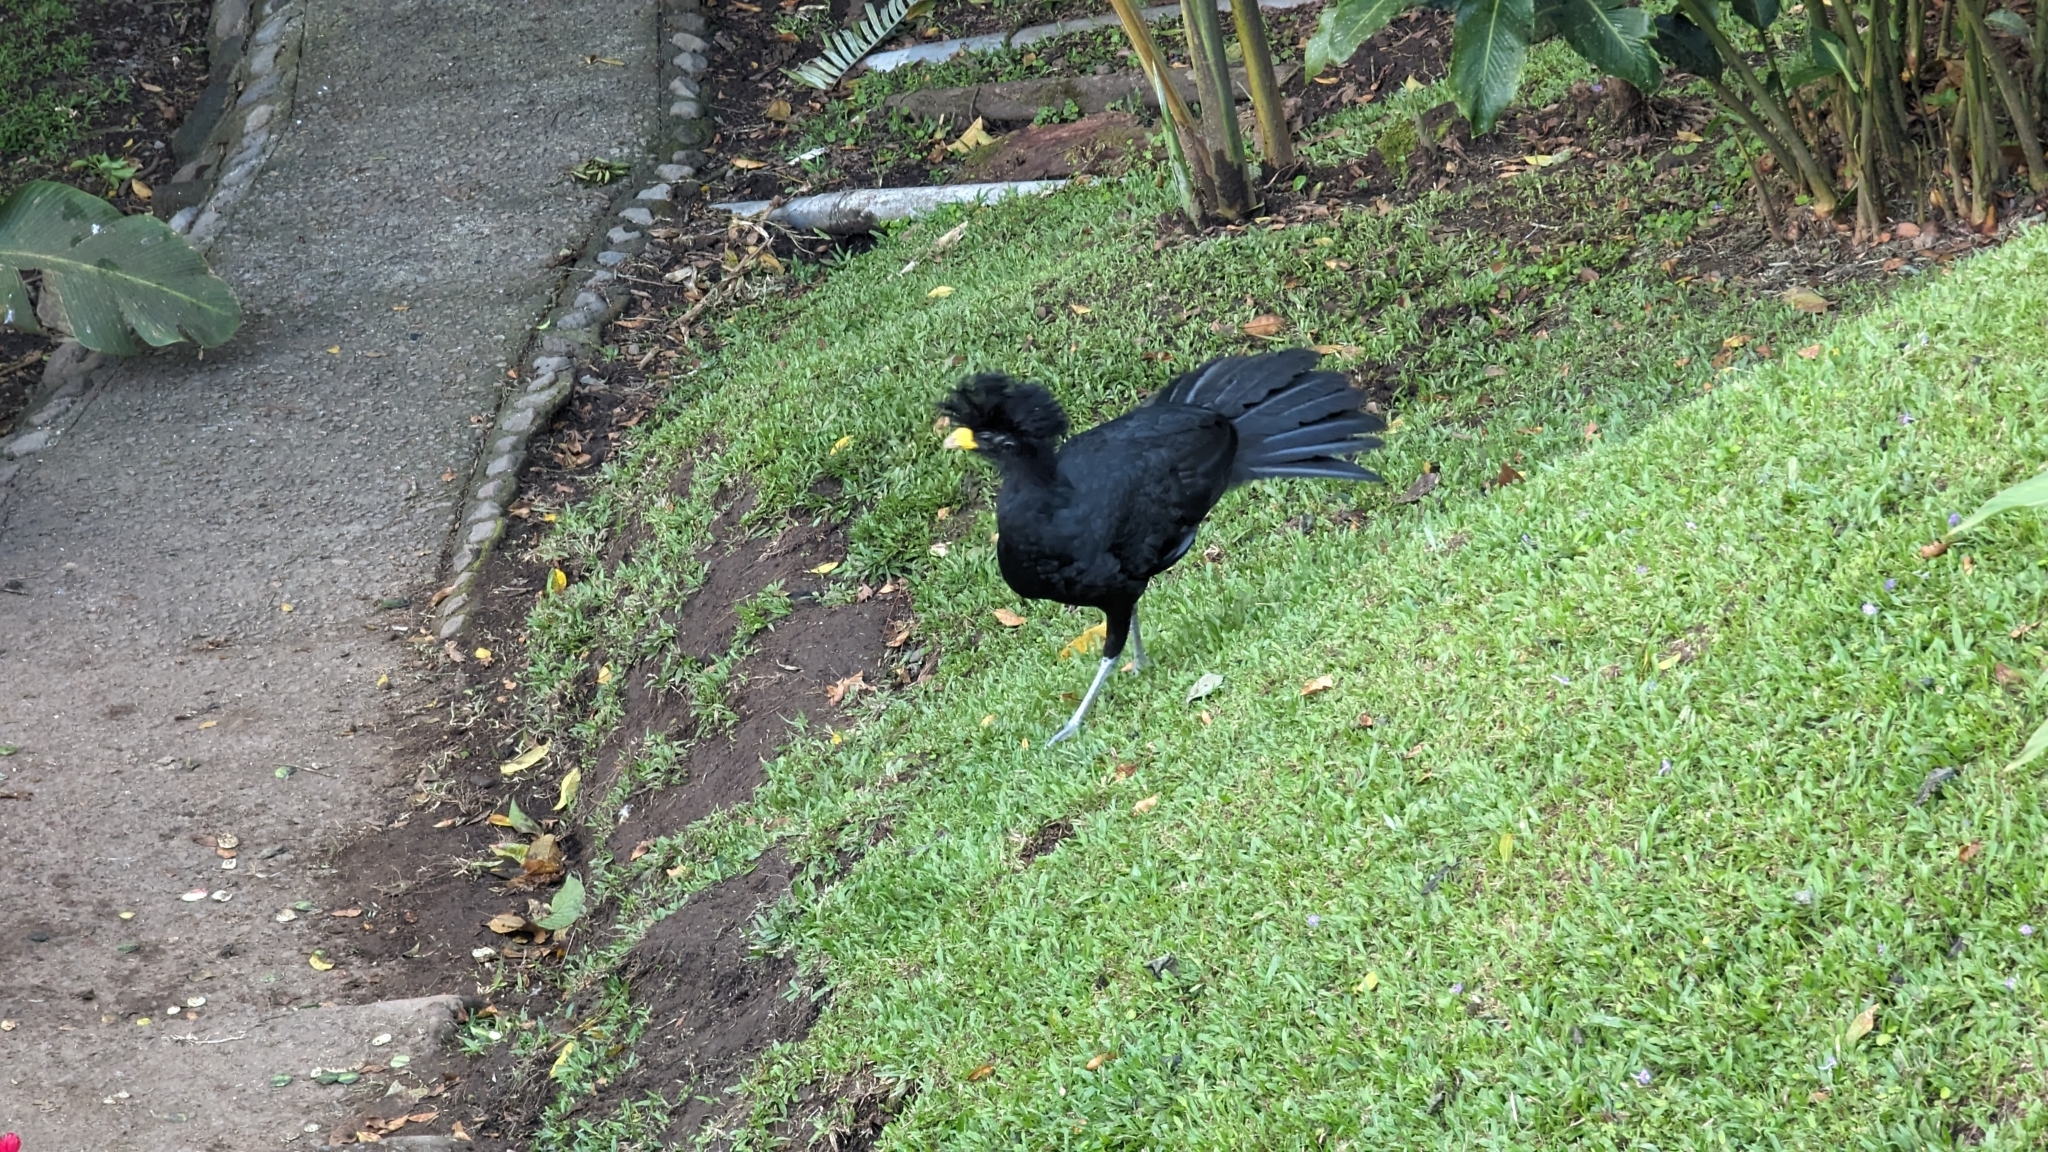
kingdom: Animalia
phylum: Chordata
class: Aves
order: Galliformes
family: Cracidae
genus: Crax
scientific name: Crax rubra
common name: Great curassow
